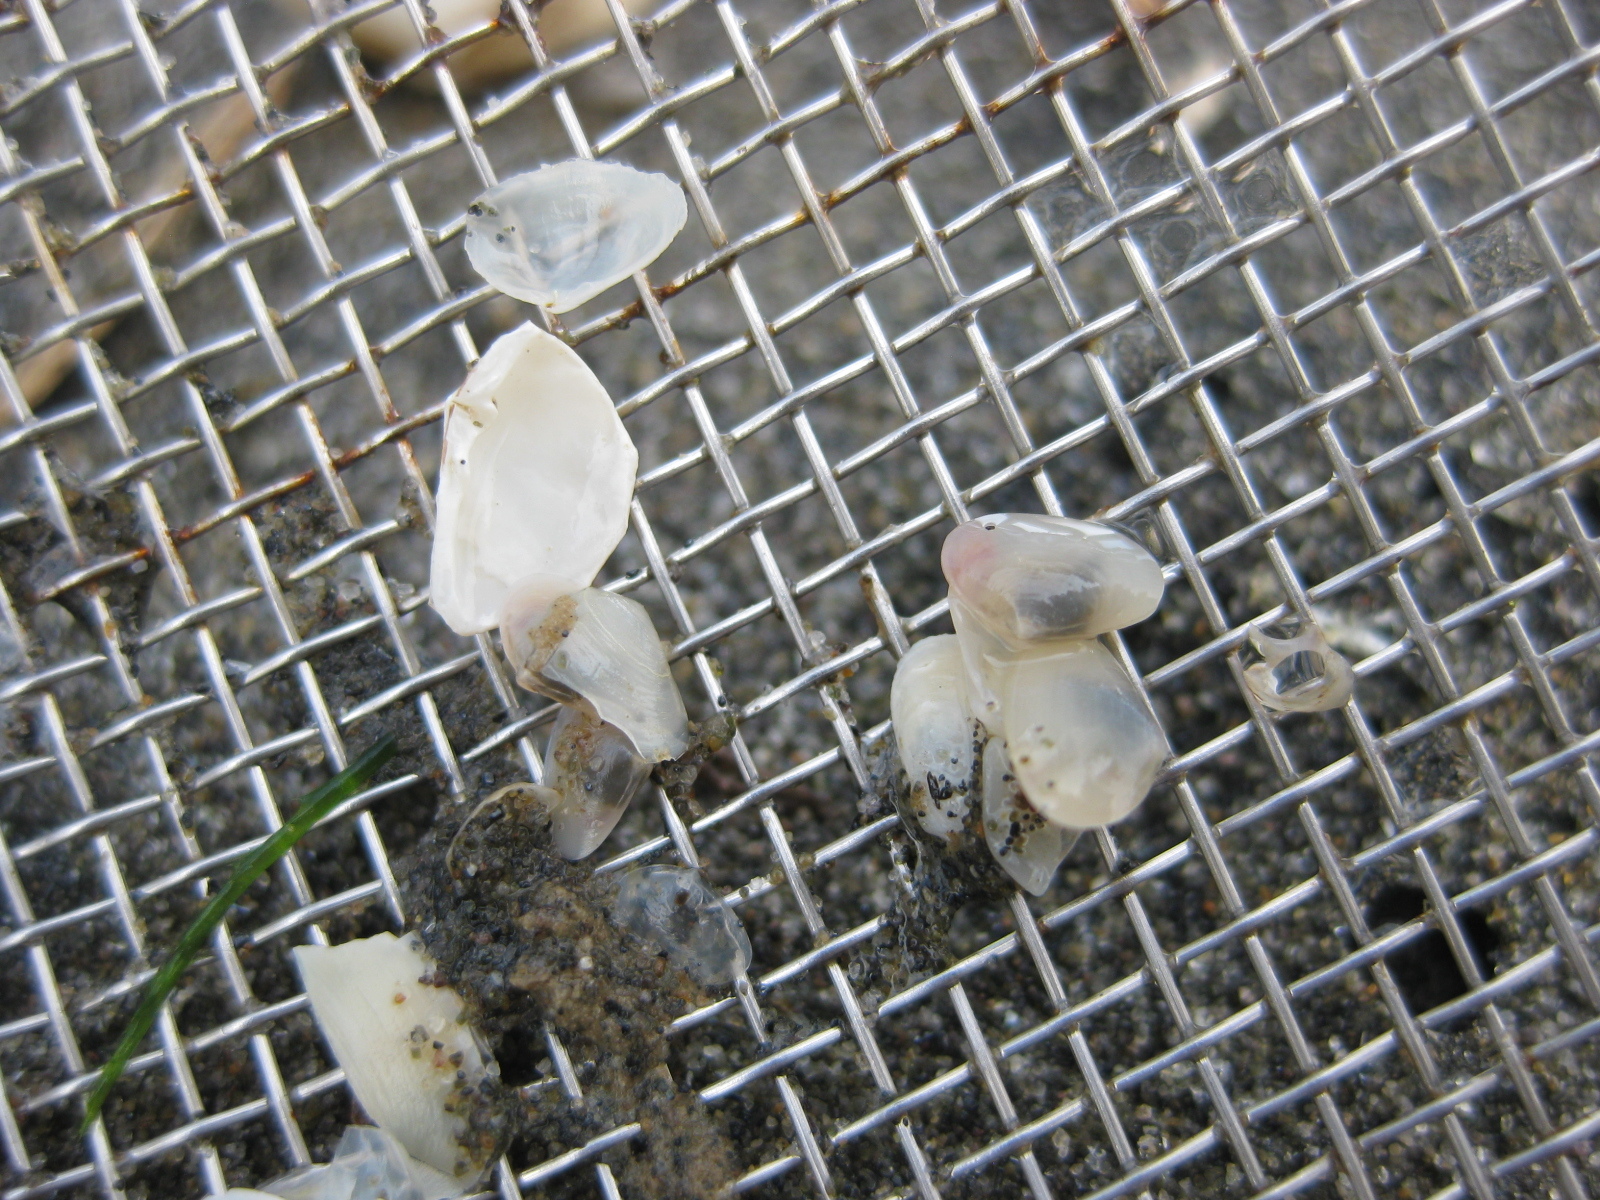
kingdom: Animalia
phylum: Mollusca
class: Bivalvia
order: Venerida
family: Mesodesmatidae
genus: Paphies
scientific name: Paphies australis
